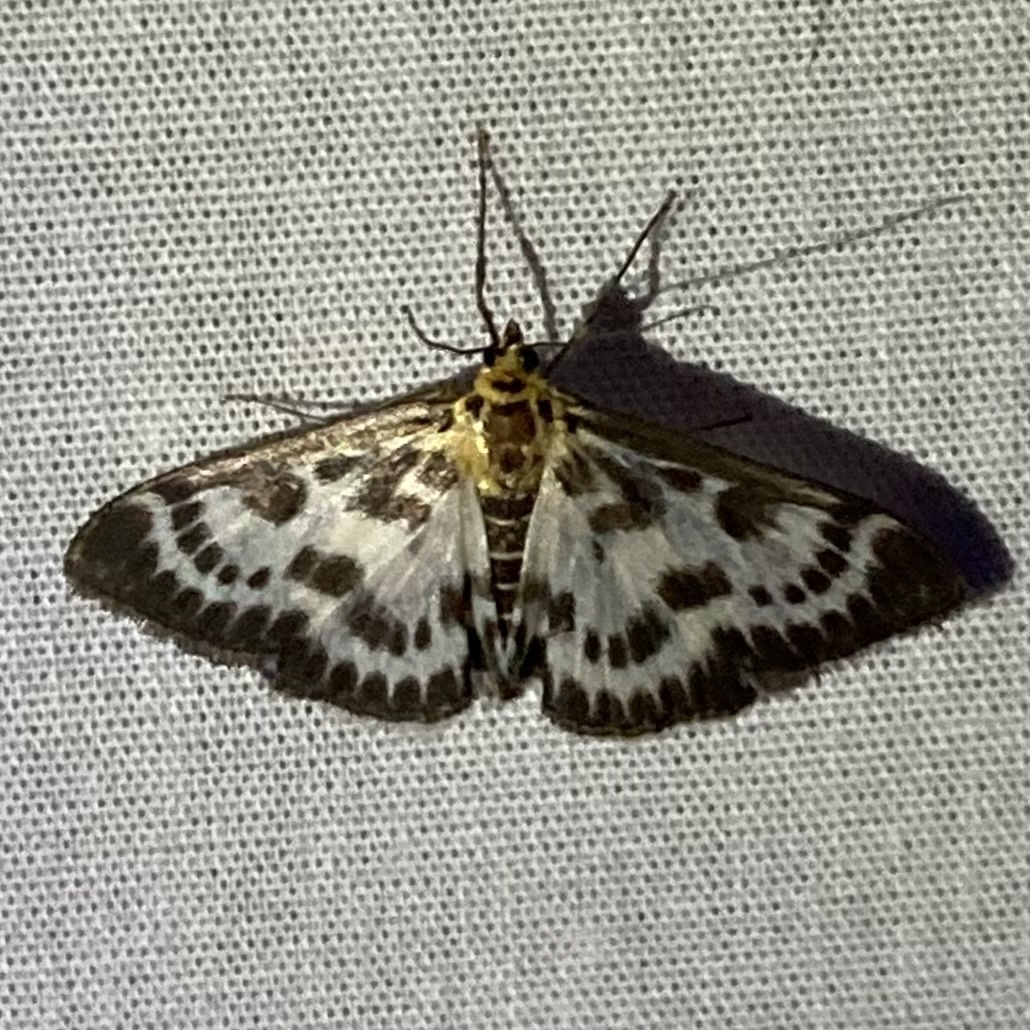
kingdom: Animalia
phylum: Arthropoda
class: Insecta
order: Lepidoptera
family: Crambidae
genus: Anania
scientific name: Anania hortulata
